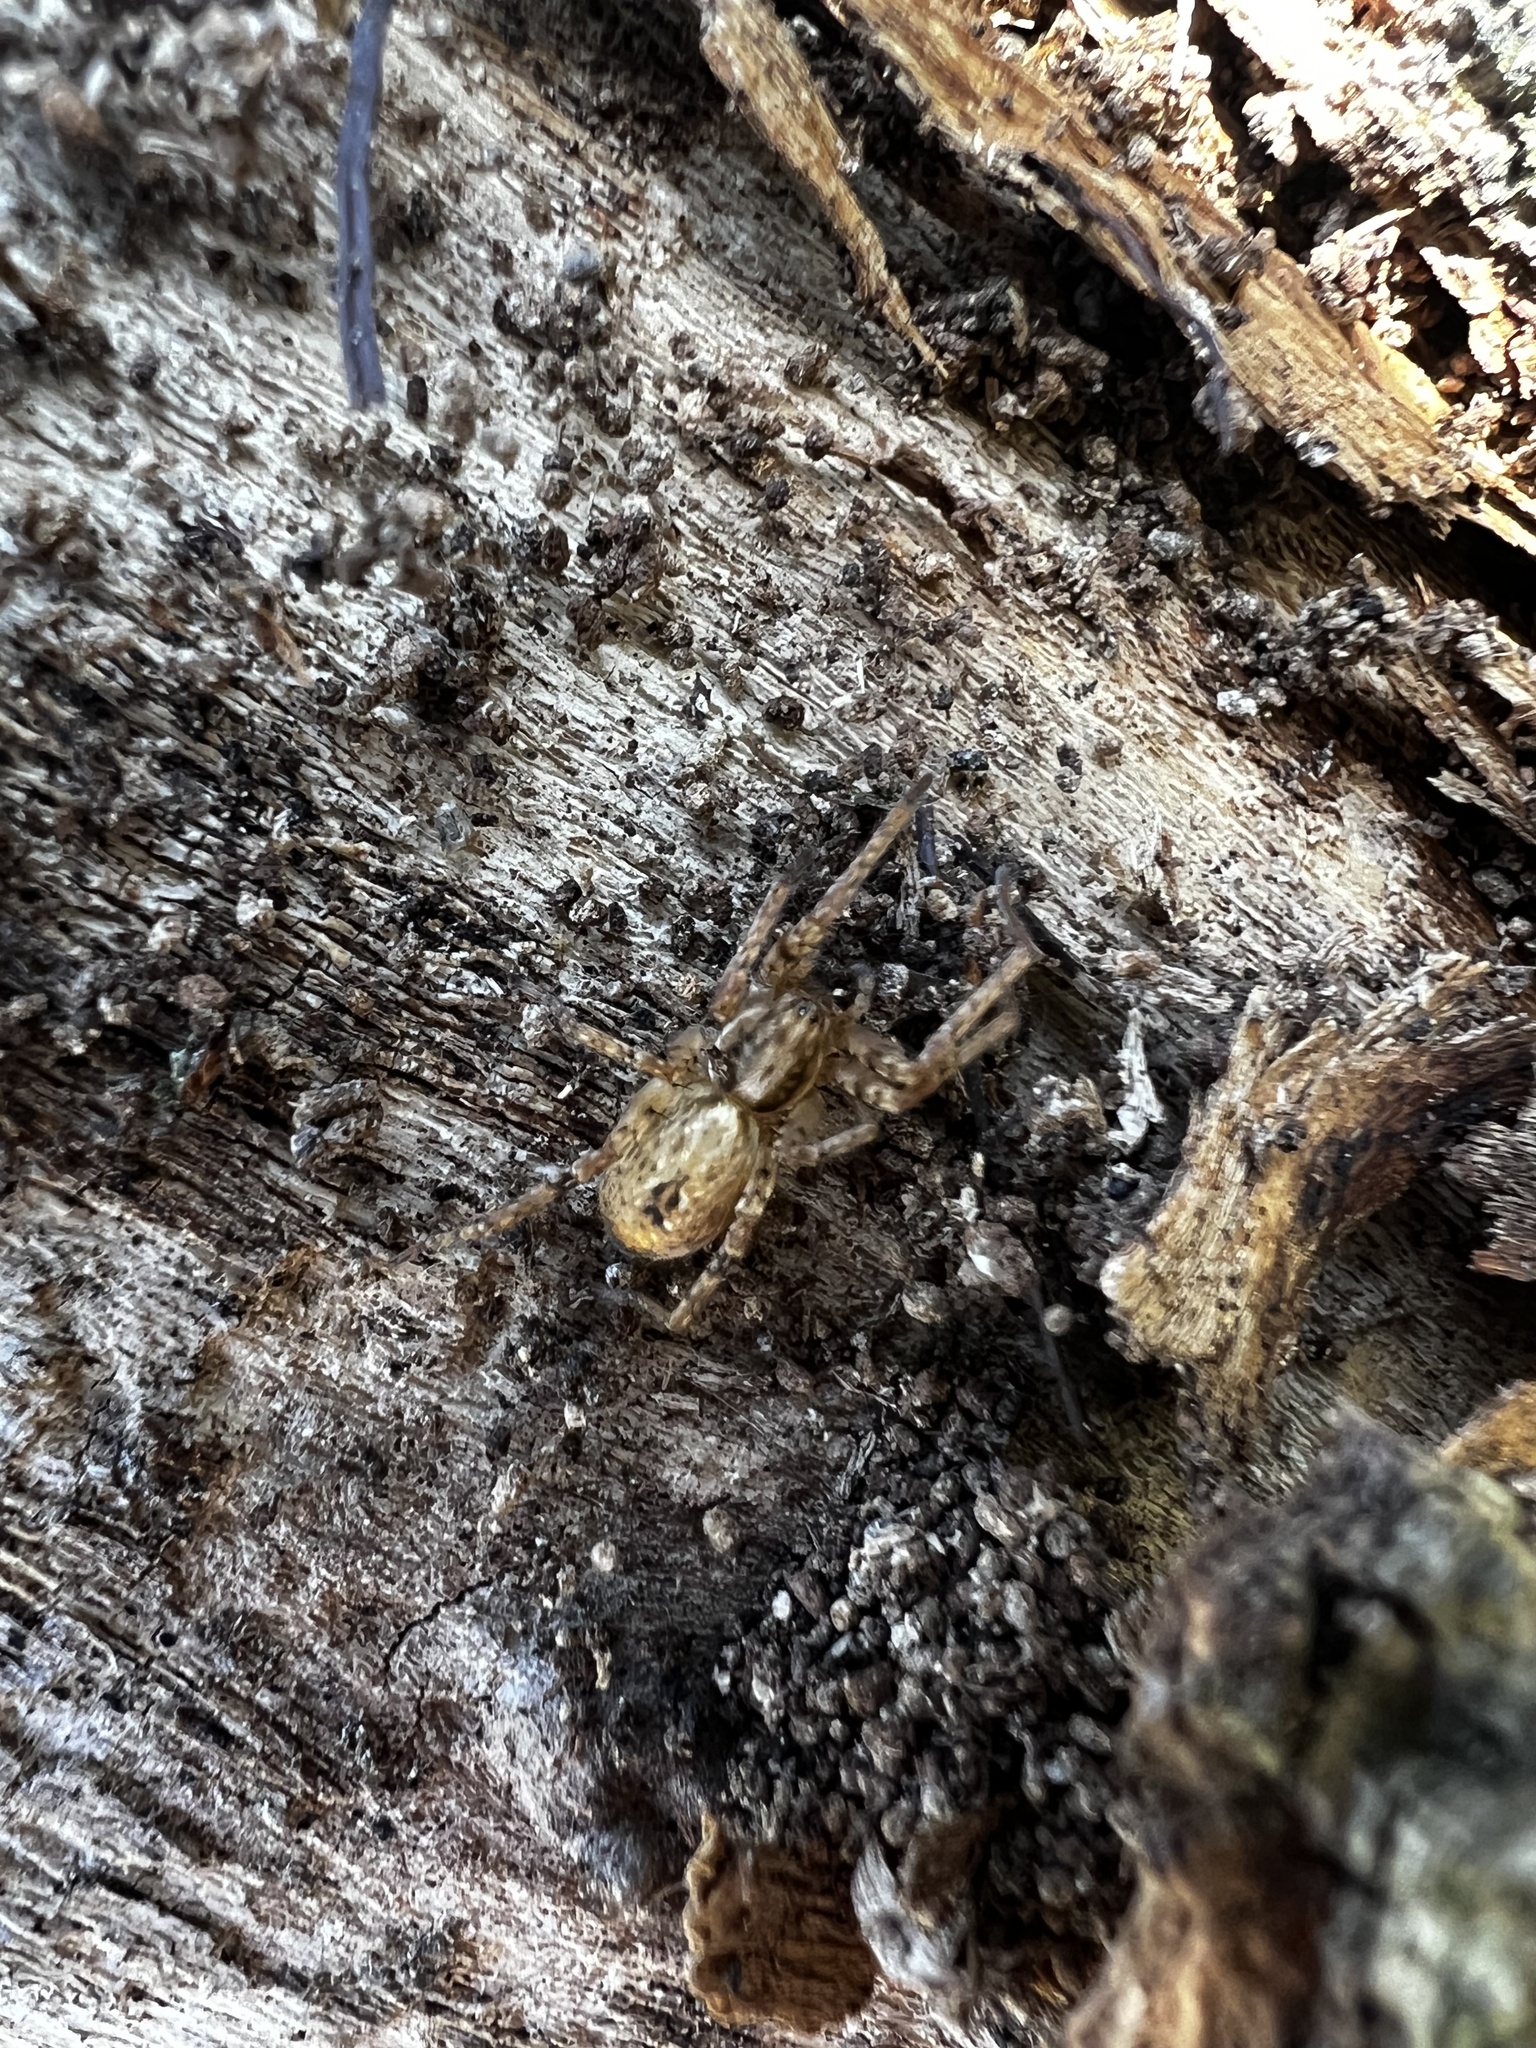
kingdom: Animalia
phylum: Arthropoda
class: Arachnida
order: Araneae
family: Anyphaenidae
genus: Anyphaena
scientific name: Anyphaena accentuata
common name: Buzzing spider
